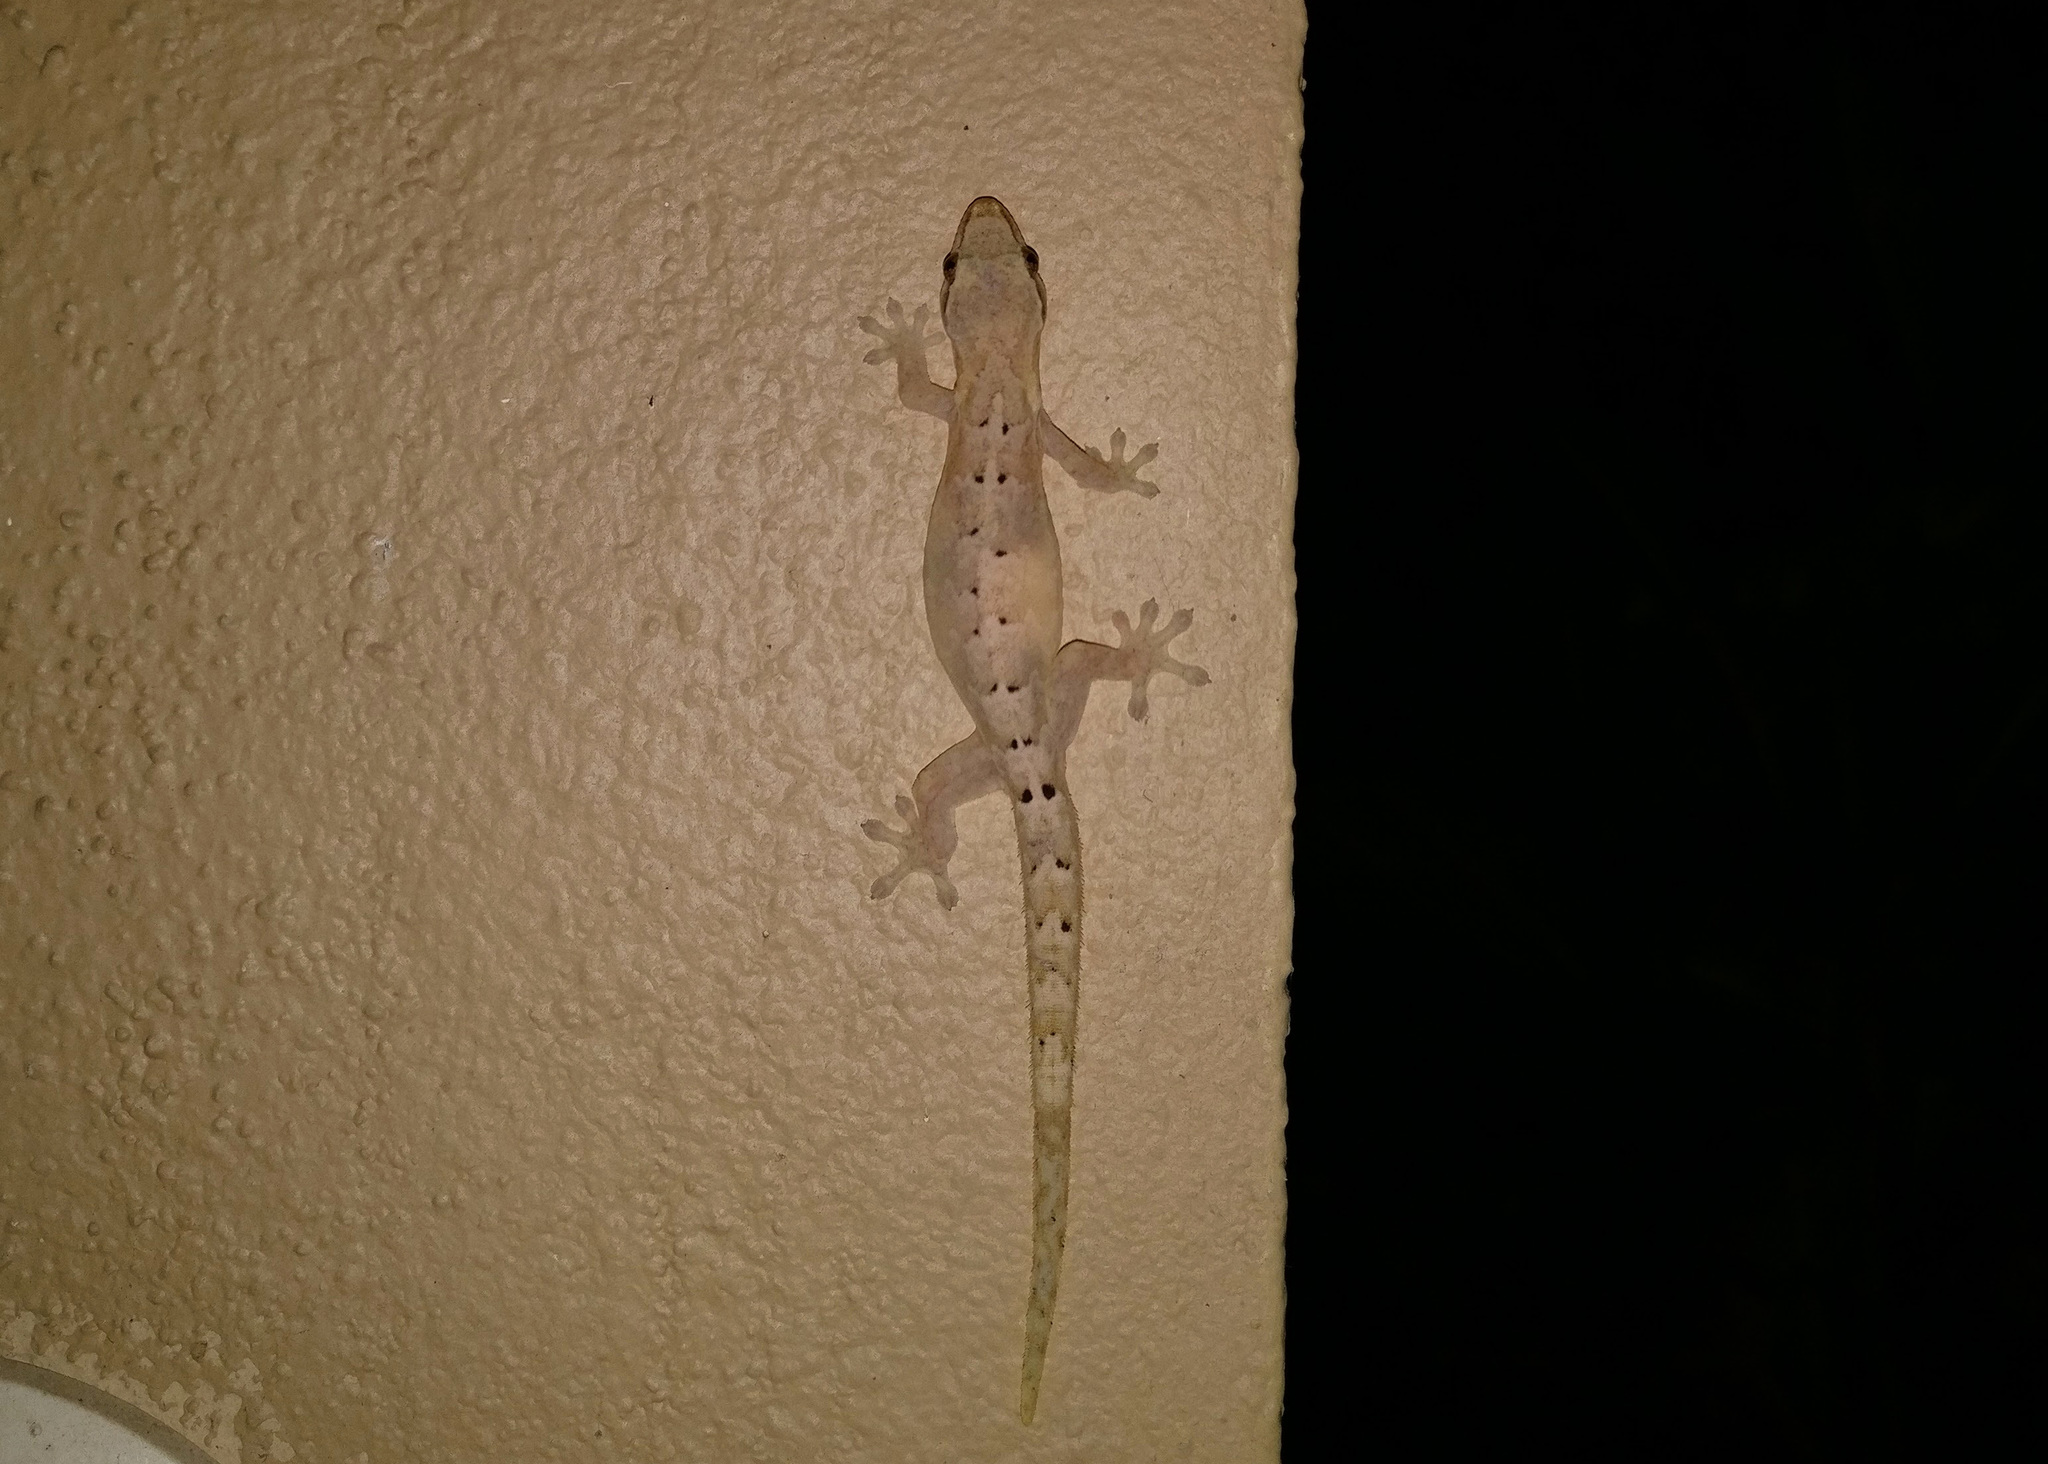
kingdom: Animalia
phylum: Chordata
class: Squamata
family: Gekkonidae
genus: Lepidodactylus
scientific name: Lepidodactylus lugubris
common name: Mourning gecko
